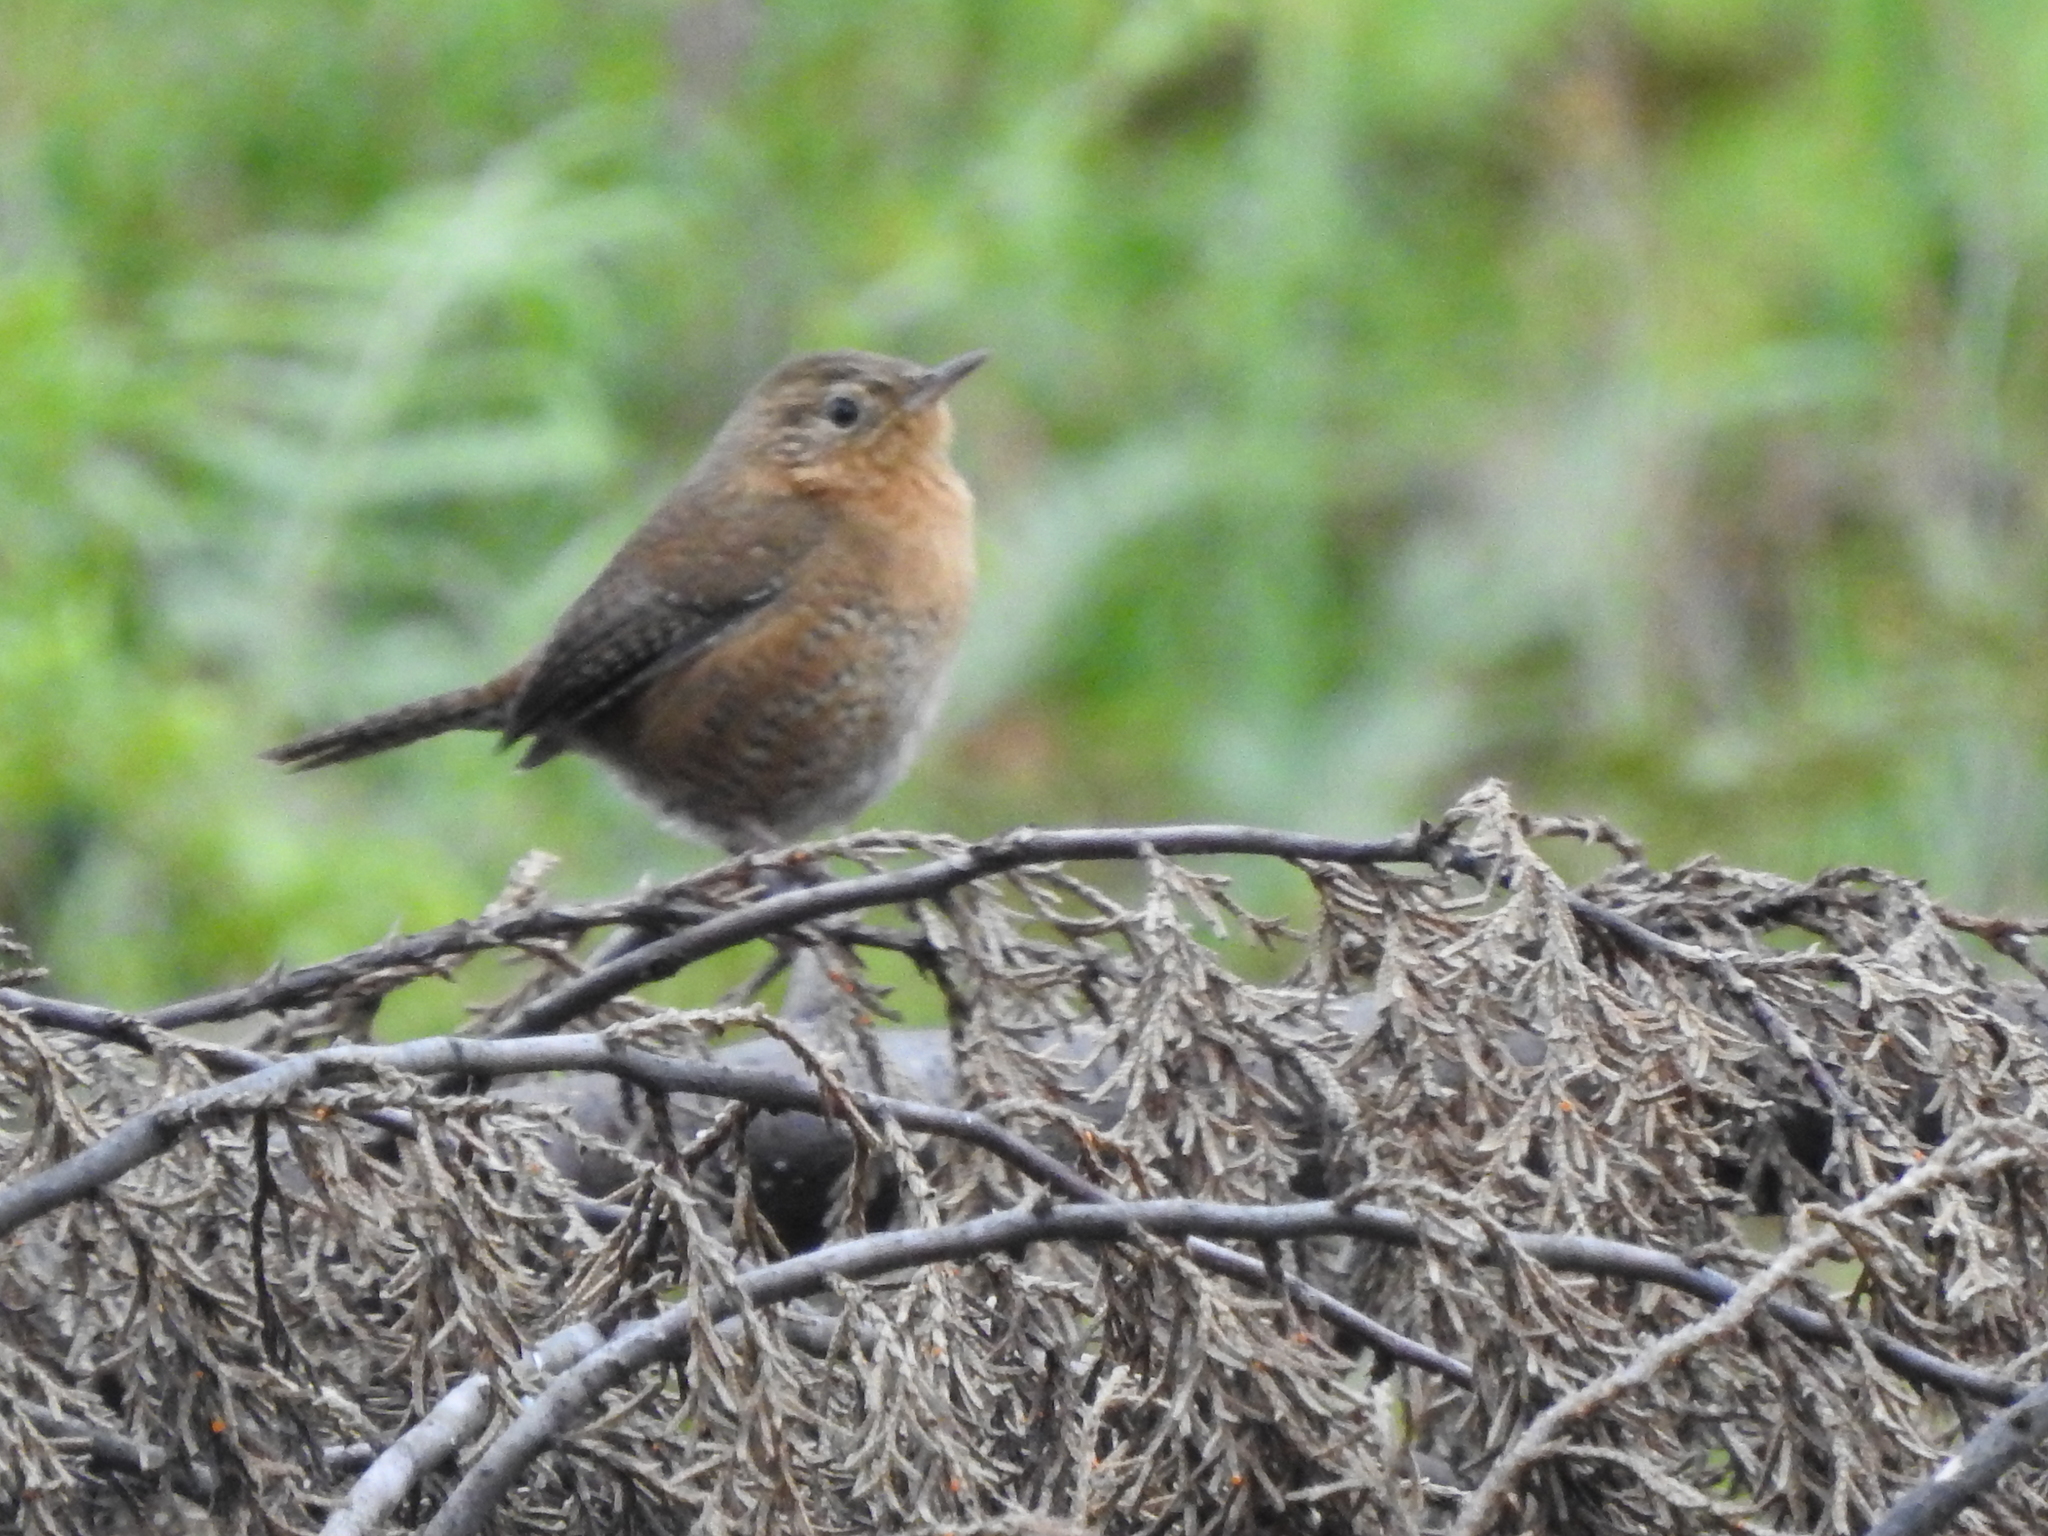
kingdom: Animalia
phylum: Chordata
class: Aves
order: Passeriformes
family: Troglodytidae
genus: Troglodytes
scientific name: Troglodytes aedon
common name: House wren
